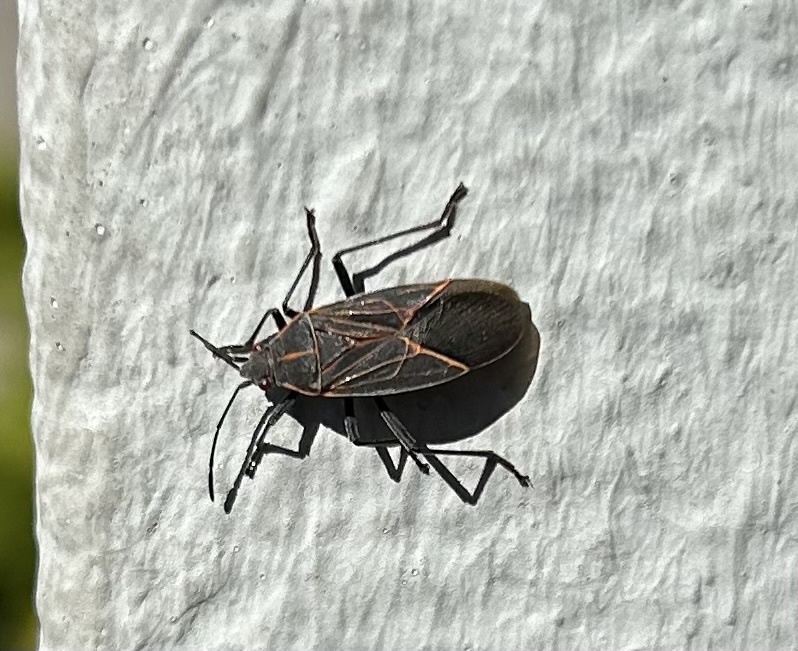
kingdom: Animalia
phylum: Arthropoda
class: Insecta
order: Hemiptera
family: Rhopalidae
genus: Boisea
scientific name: Boisea rubrolineata
